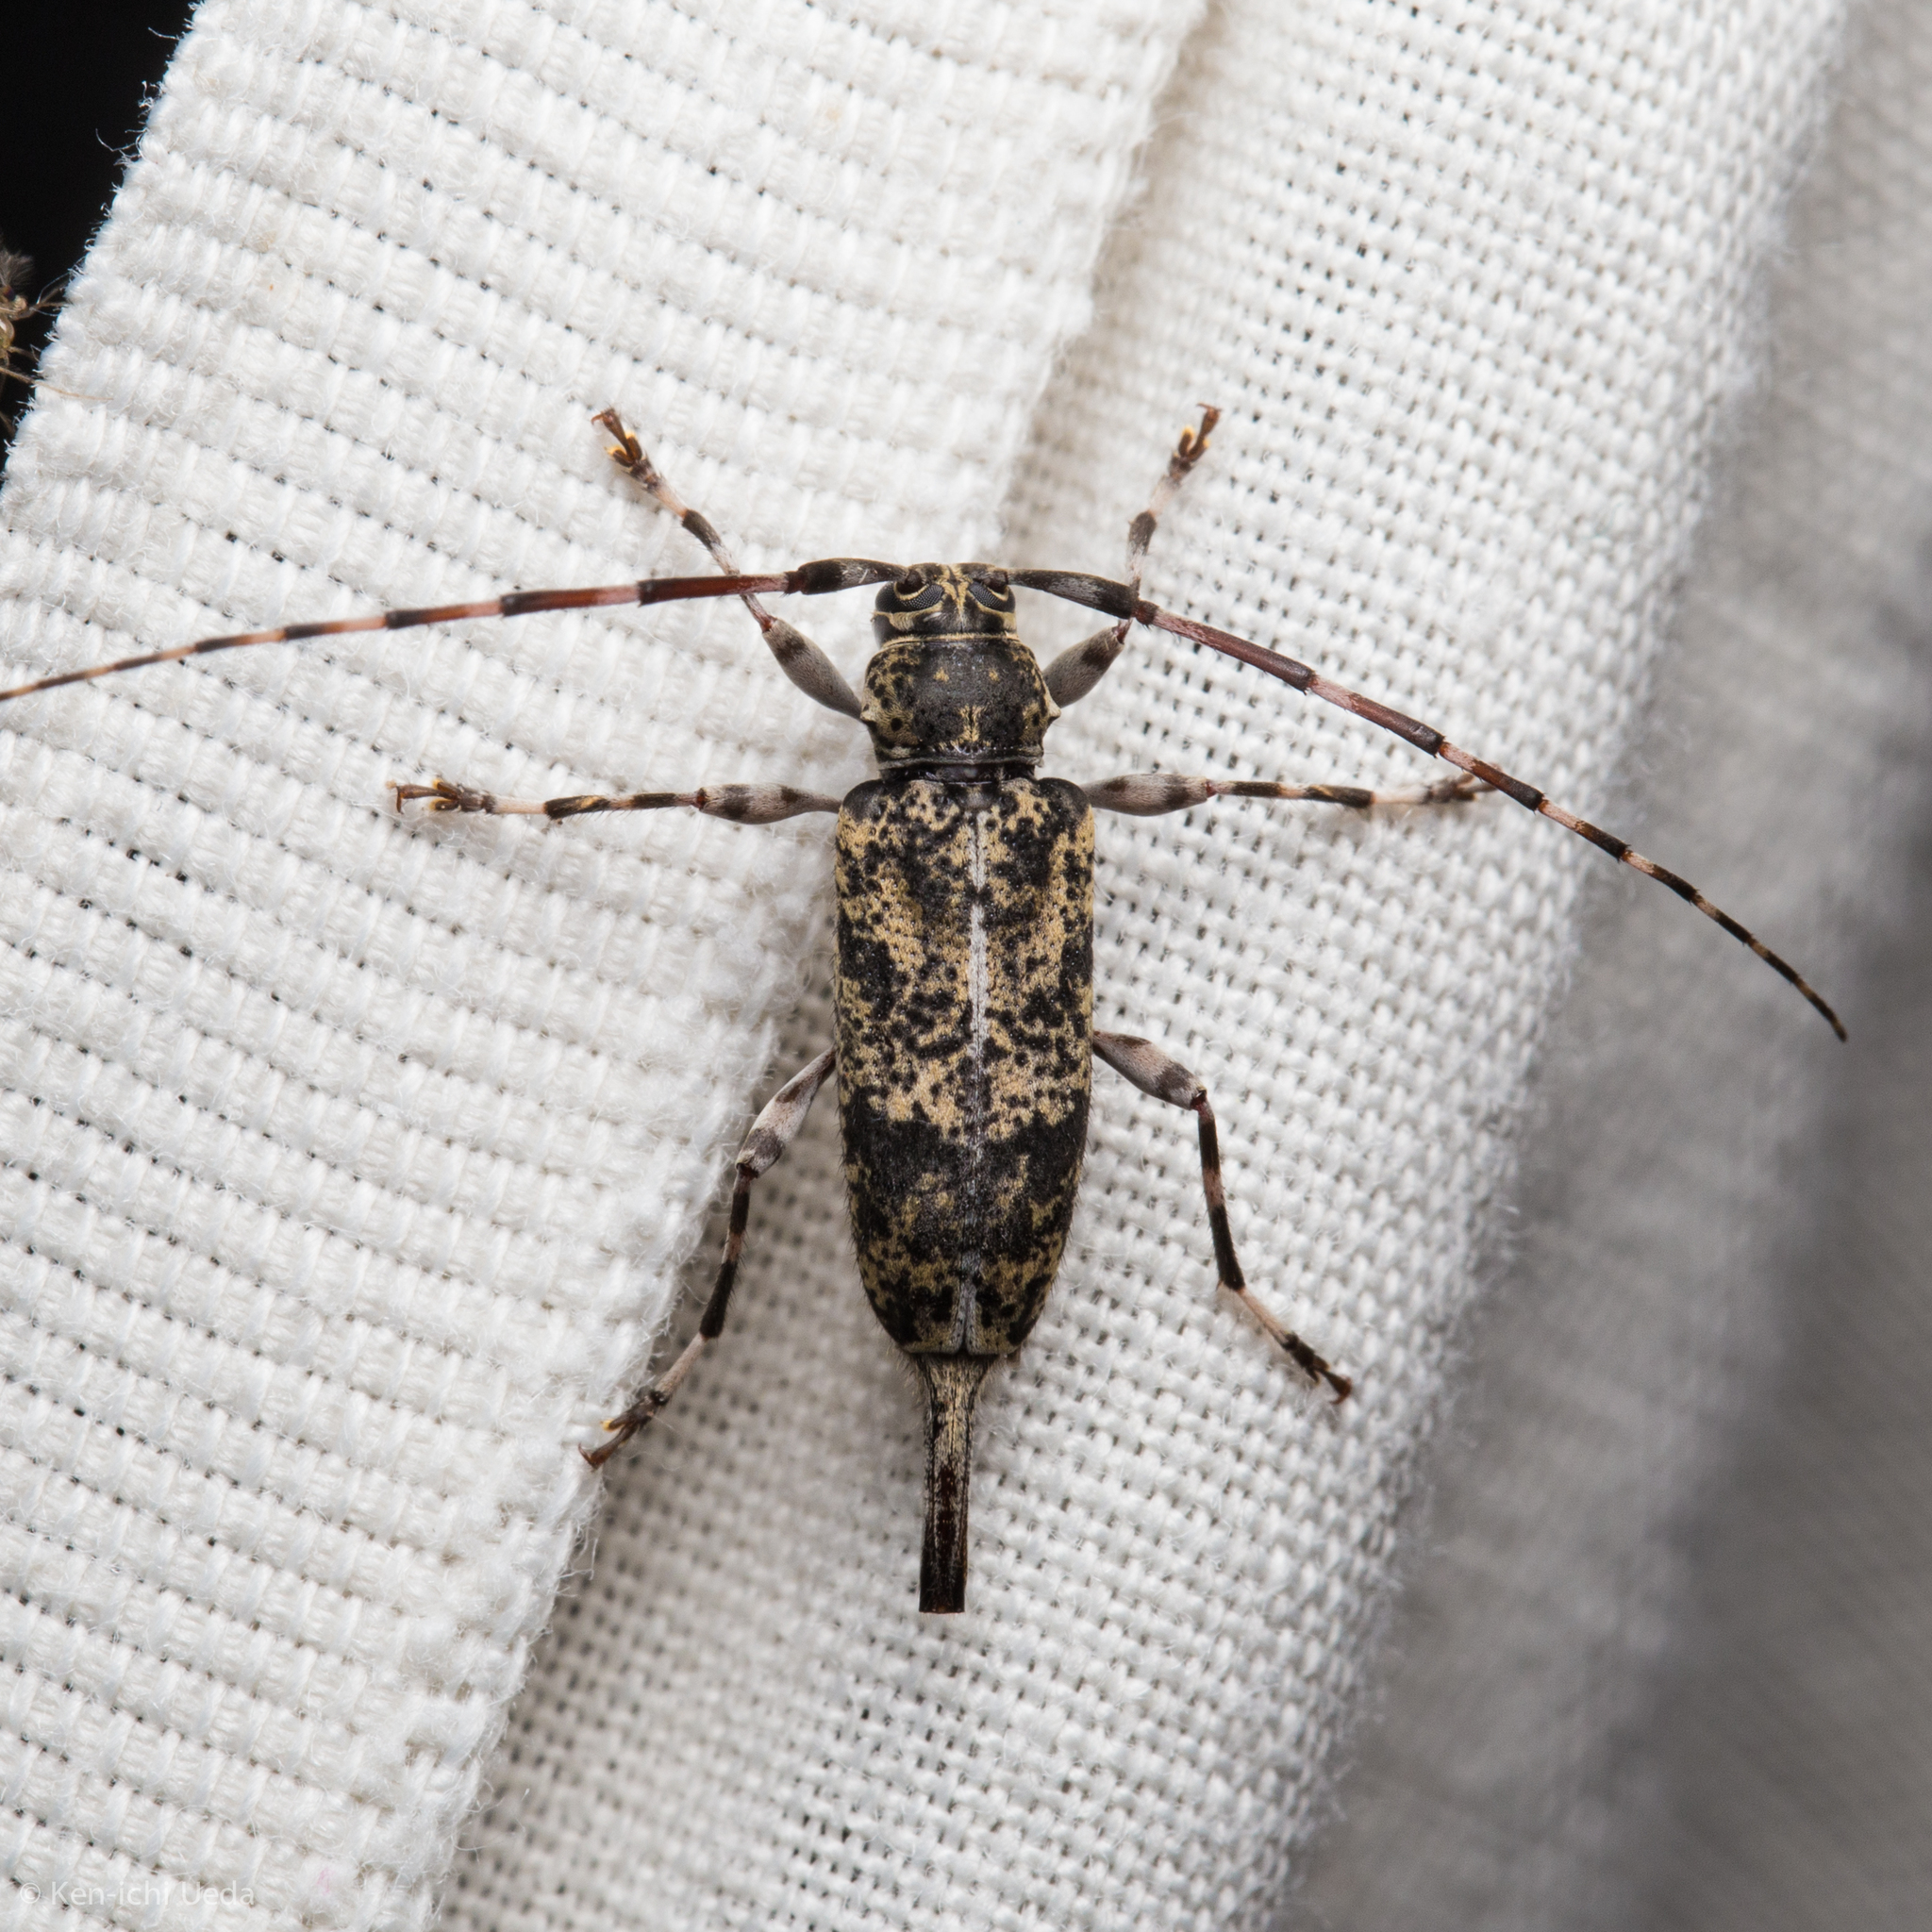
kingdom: Animalia
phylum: Arthropoda
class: Insecta
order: Coleoptera
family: Cerambycidae
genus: Graphisurus
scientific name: Graphisurus fasciatus
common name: Banded graphisurus
